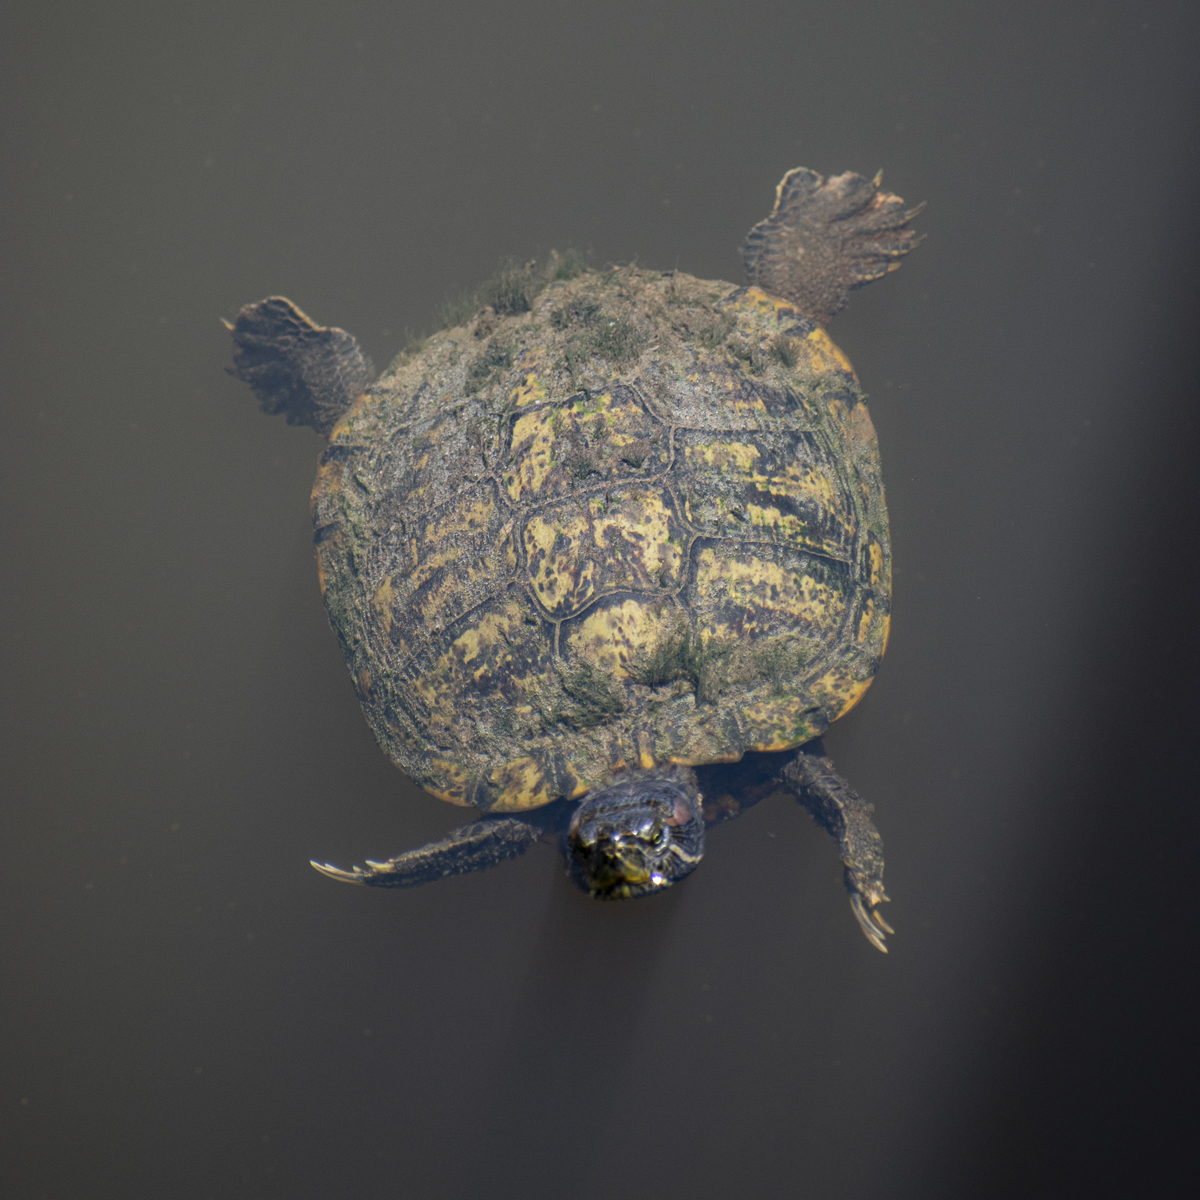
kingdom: Animalia
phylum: Chordata
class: Testudines
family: Emydidae
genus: Trachemys
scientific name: Trachemys scripta
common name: Slider
